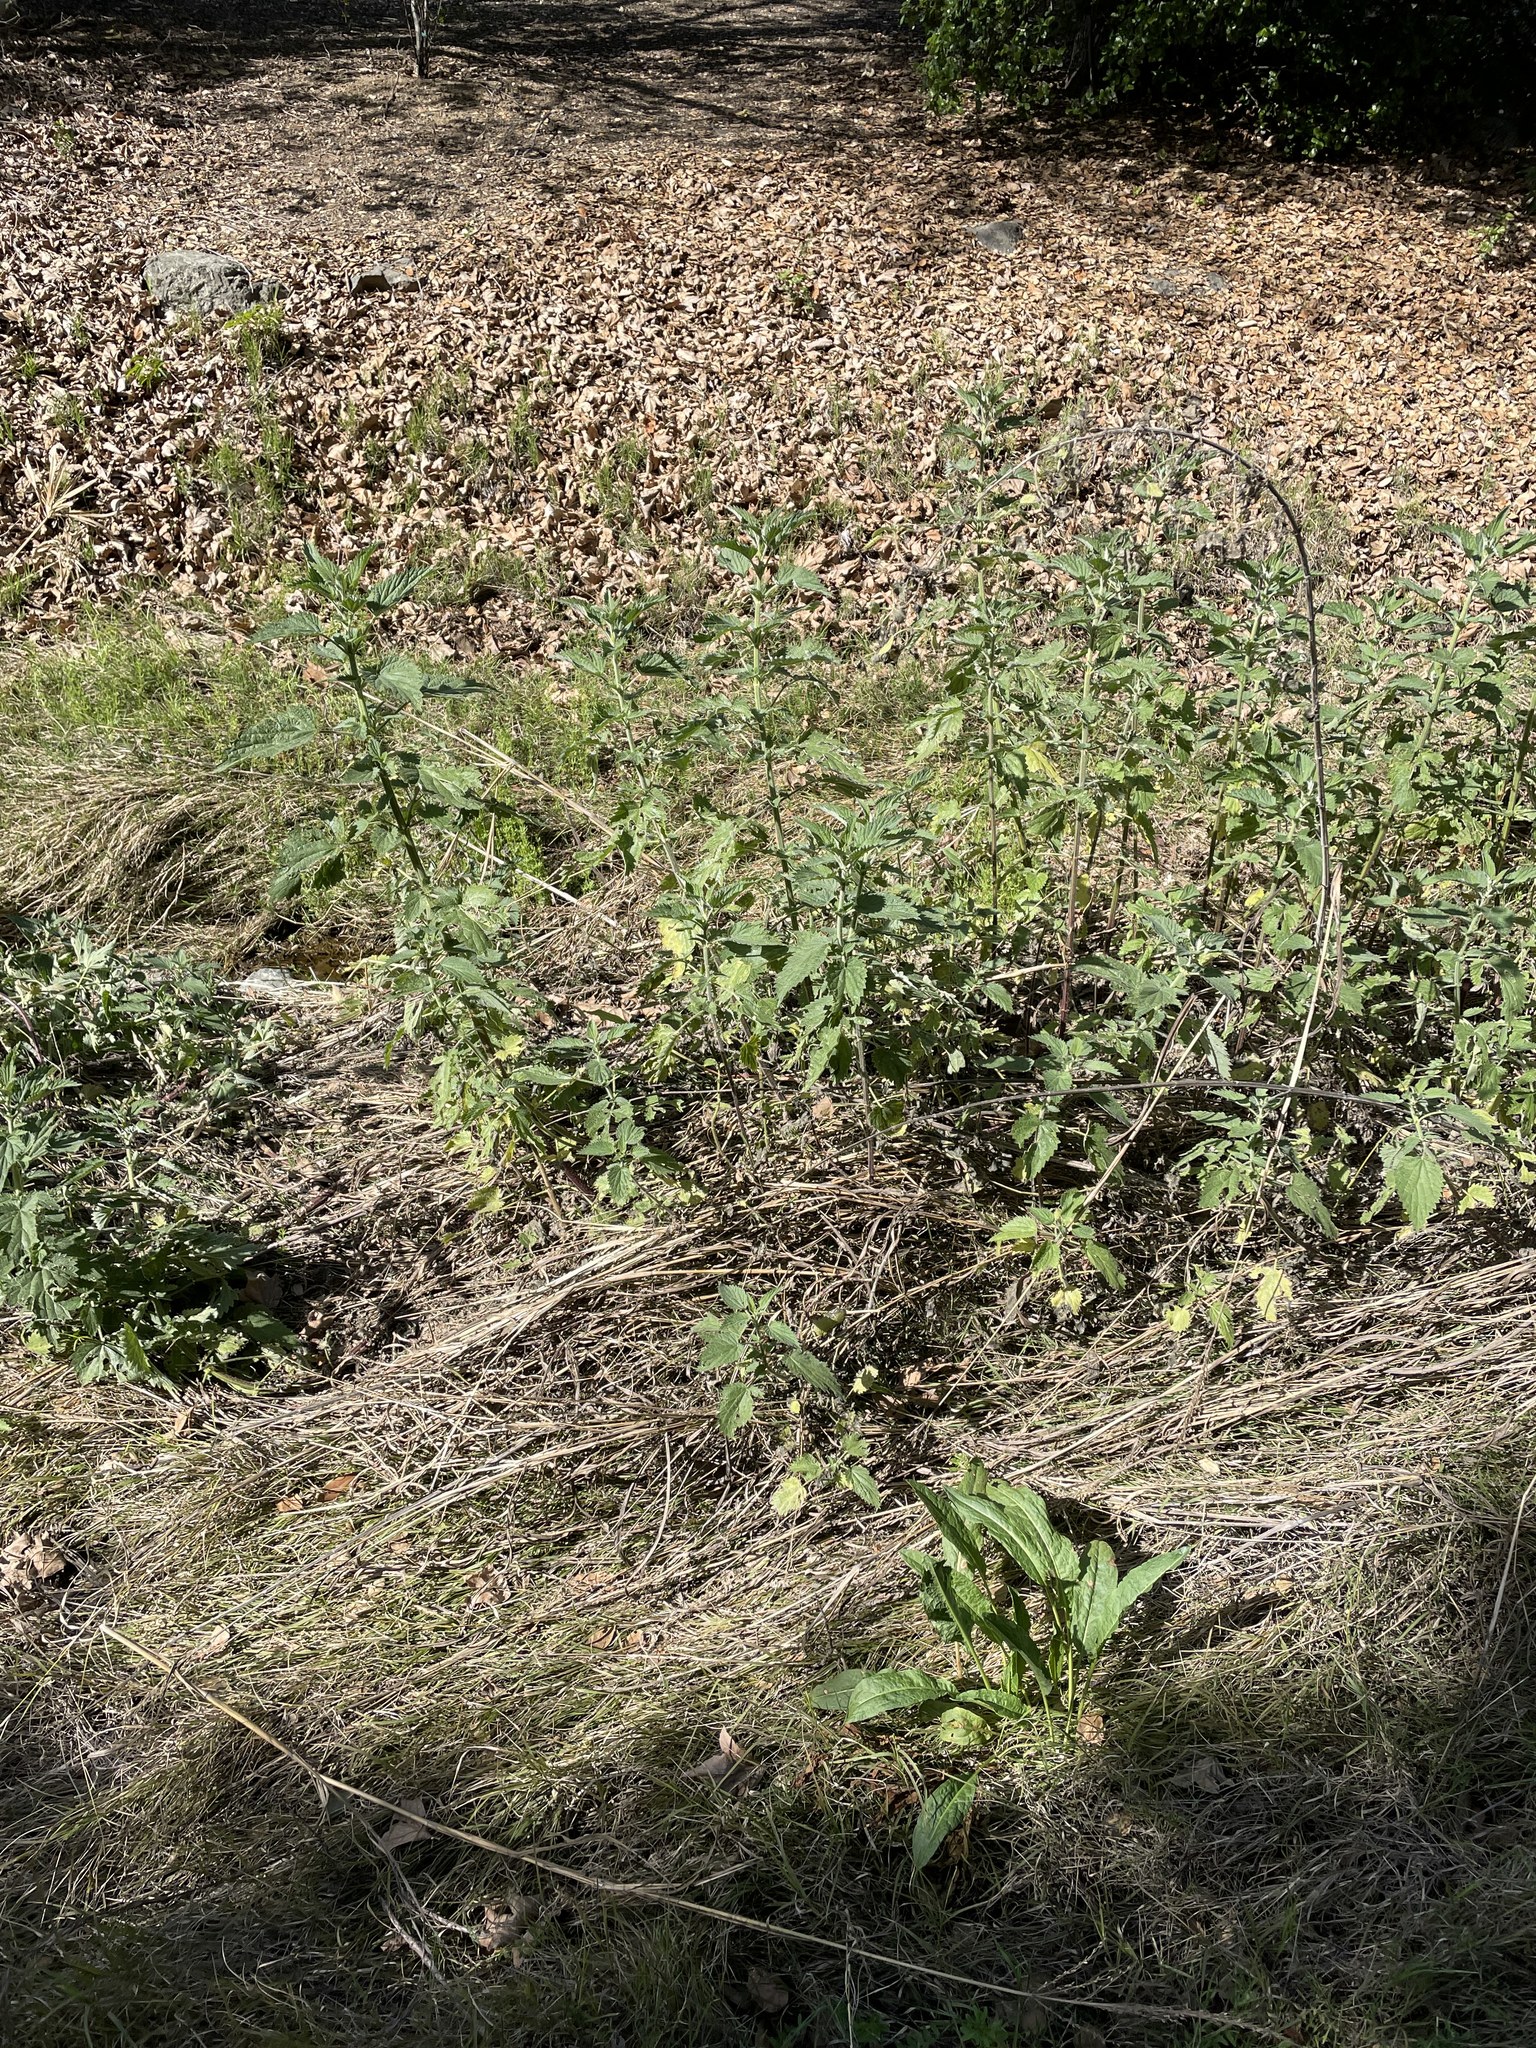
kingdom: Plantae
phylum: Tracheophyta
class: Magnoliopsida
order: Rosales
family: Urticaceae
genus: Urtica
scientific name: Urtica dioica
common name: Common nettle
